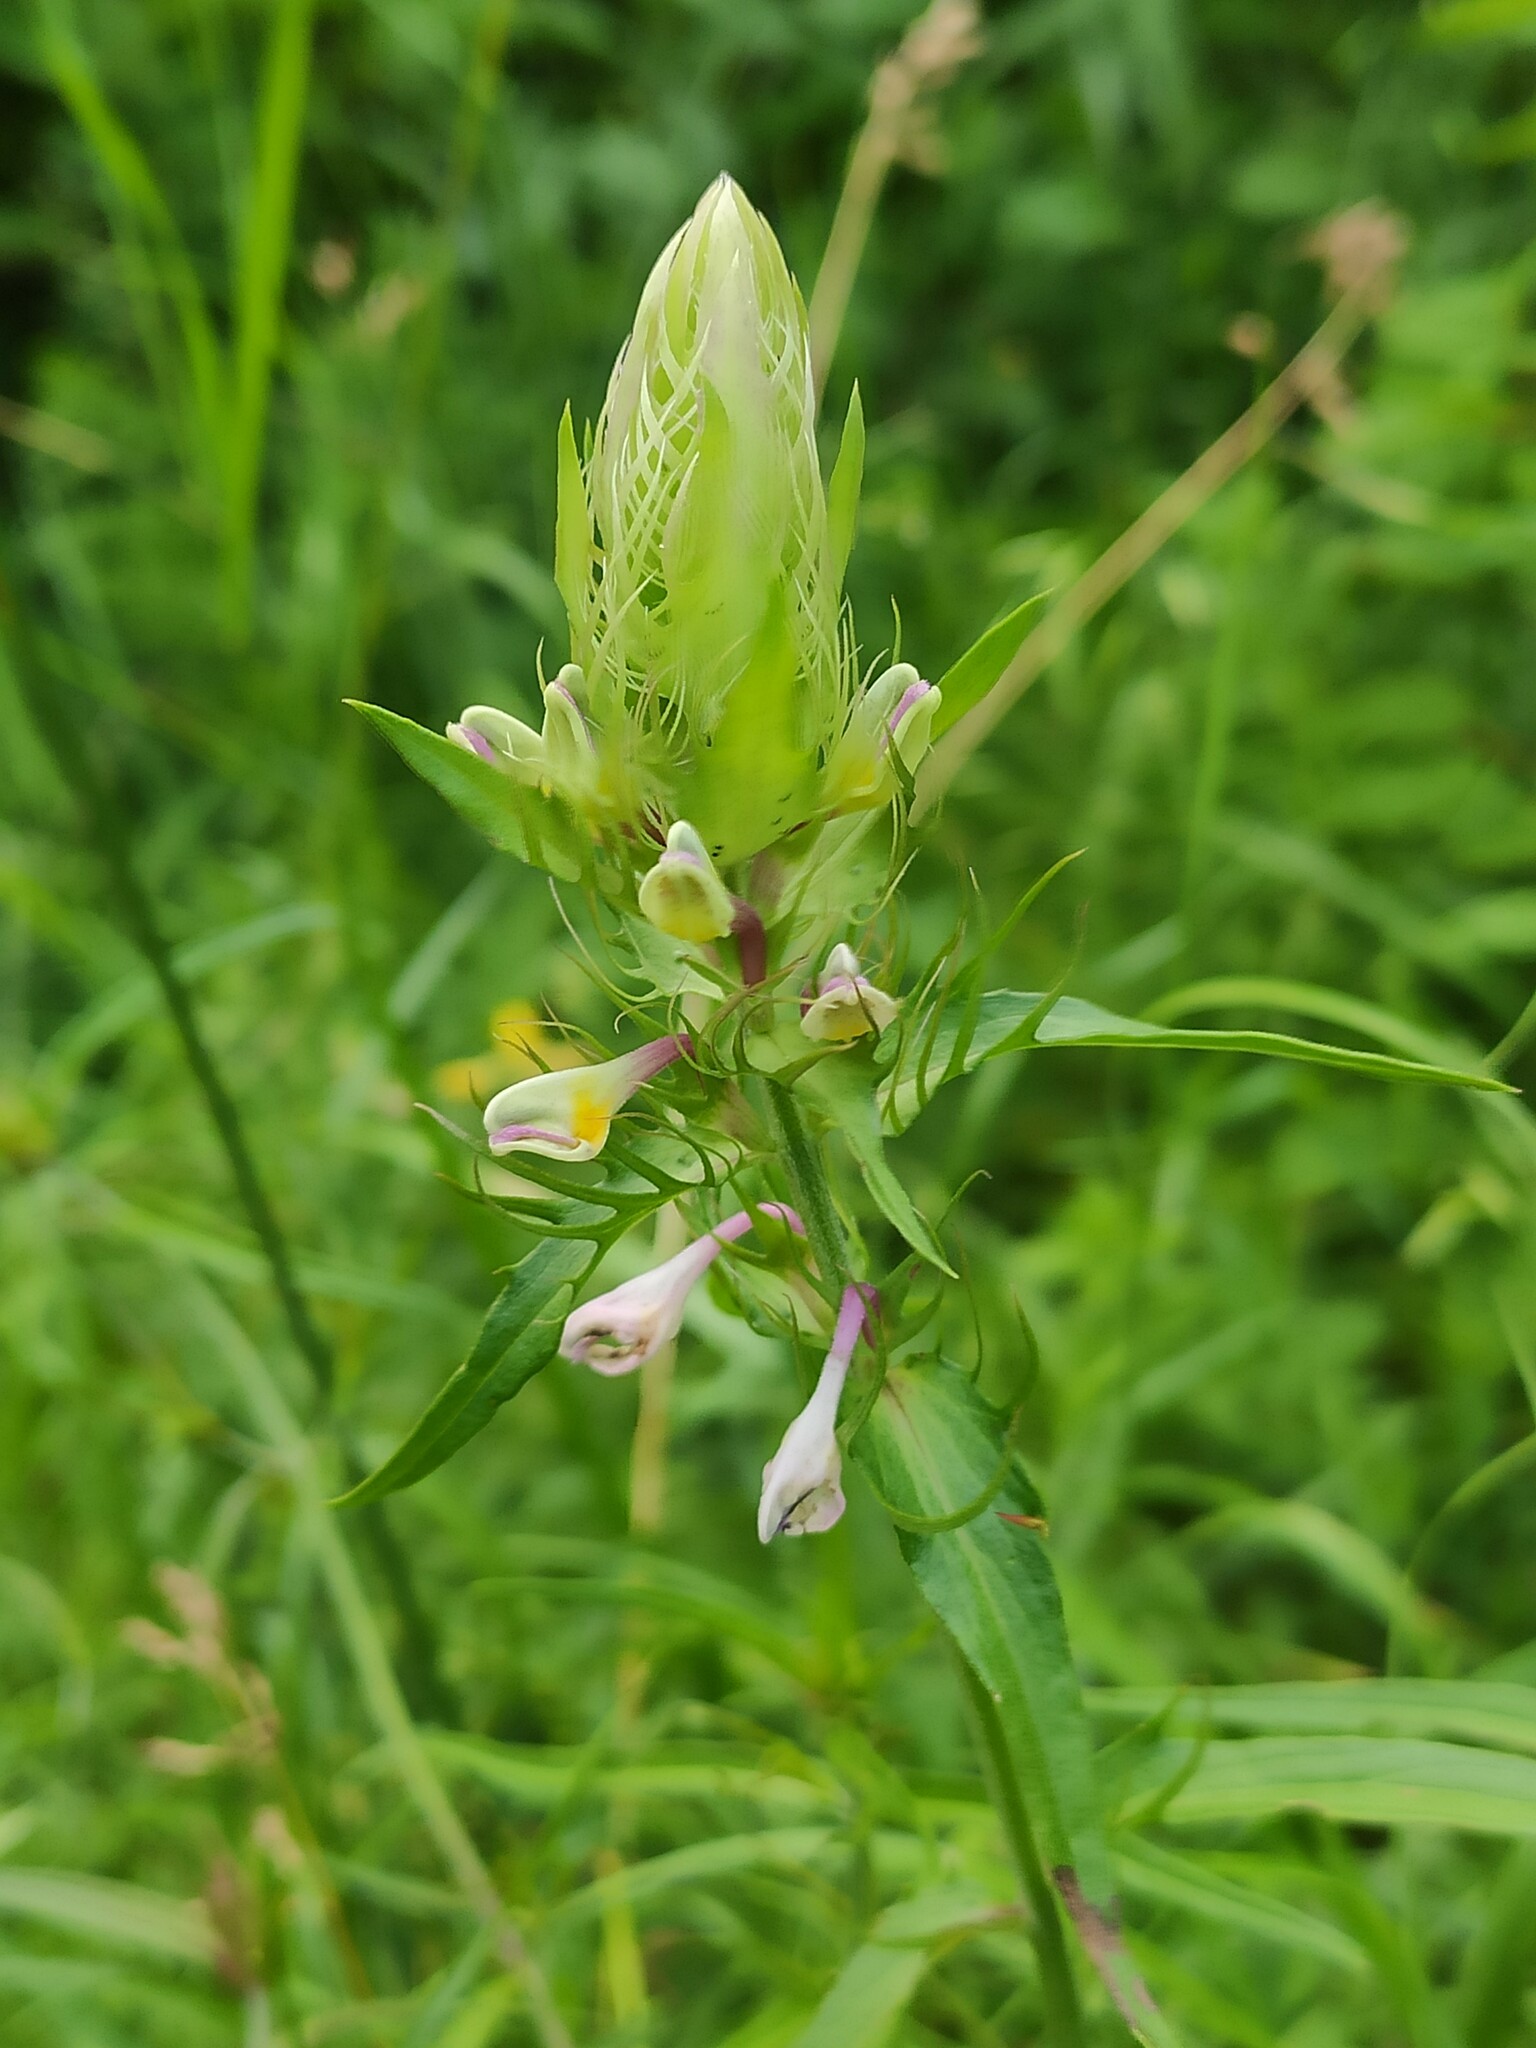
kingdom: Plantae
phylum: Tracheophyta
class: Magnoliopsida
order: Lamiales
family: Orobanchaceae
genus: Melampyrum
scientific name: Melampyrum arvense
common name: Field cow-wheat
